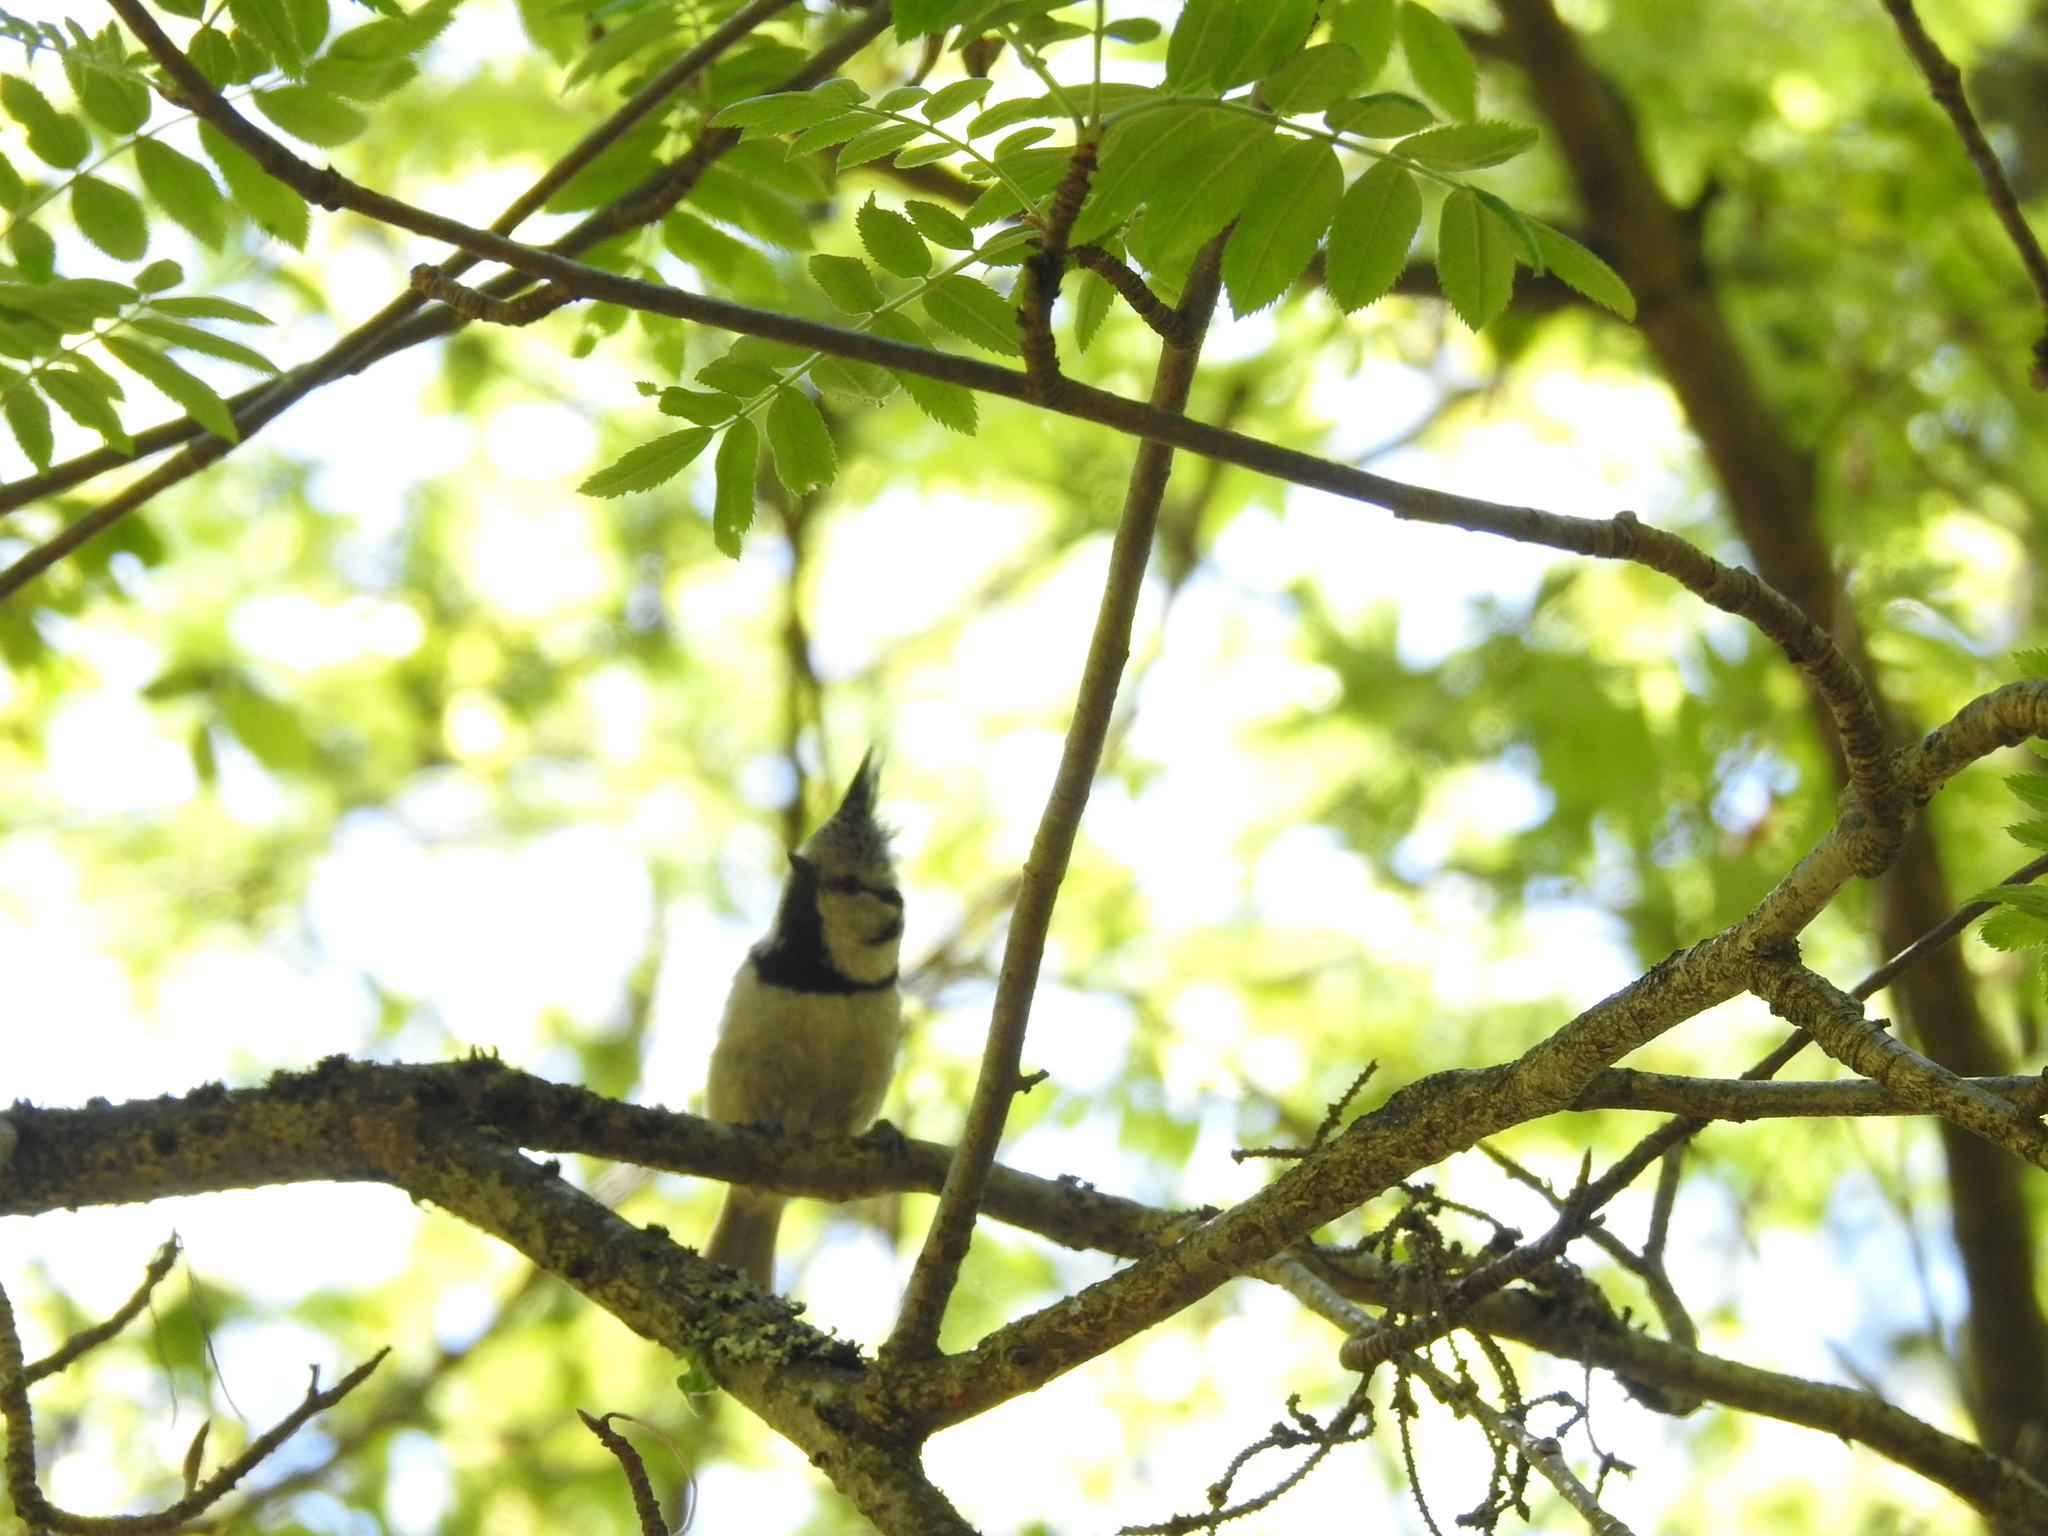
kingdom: Animalia
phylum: Chordata
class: Aves
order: Passeriformes
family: Paridae
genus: Lophophanes
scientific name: Lophophanes cristatus
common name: European crested tit
